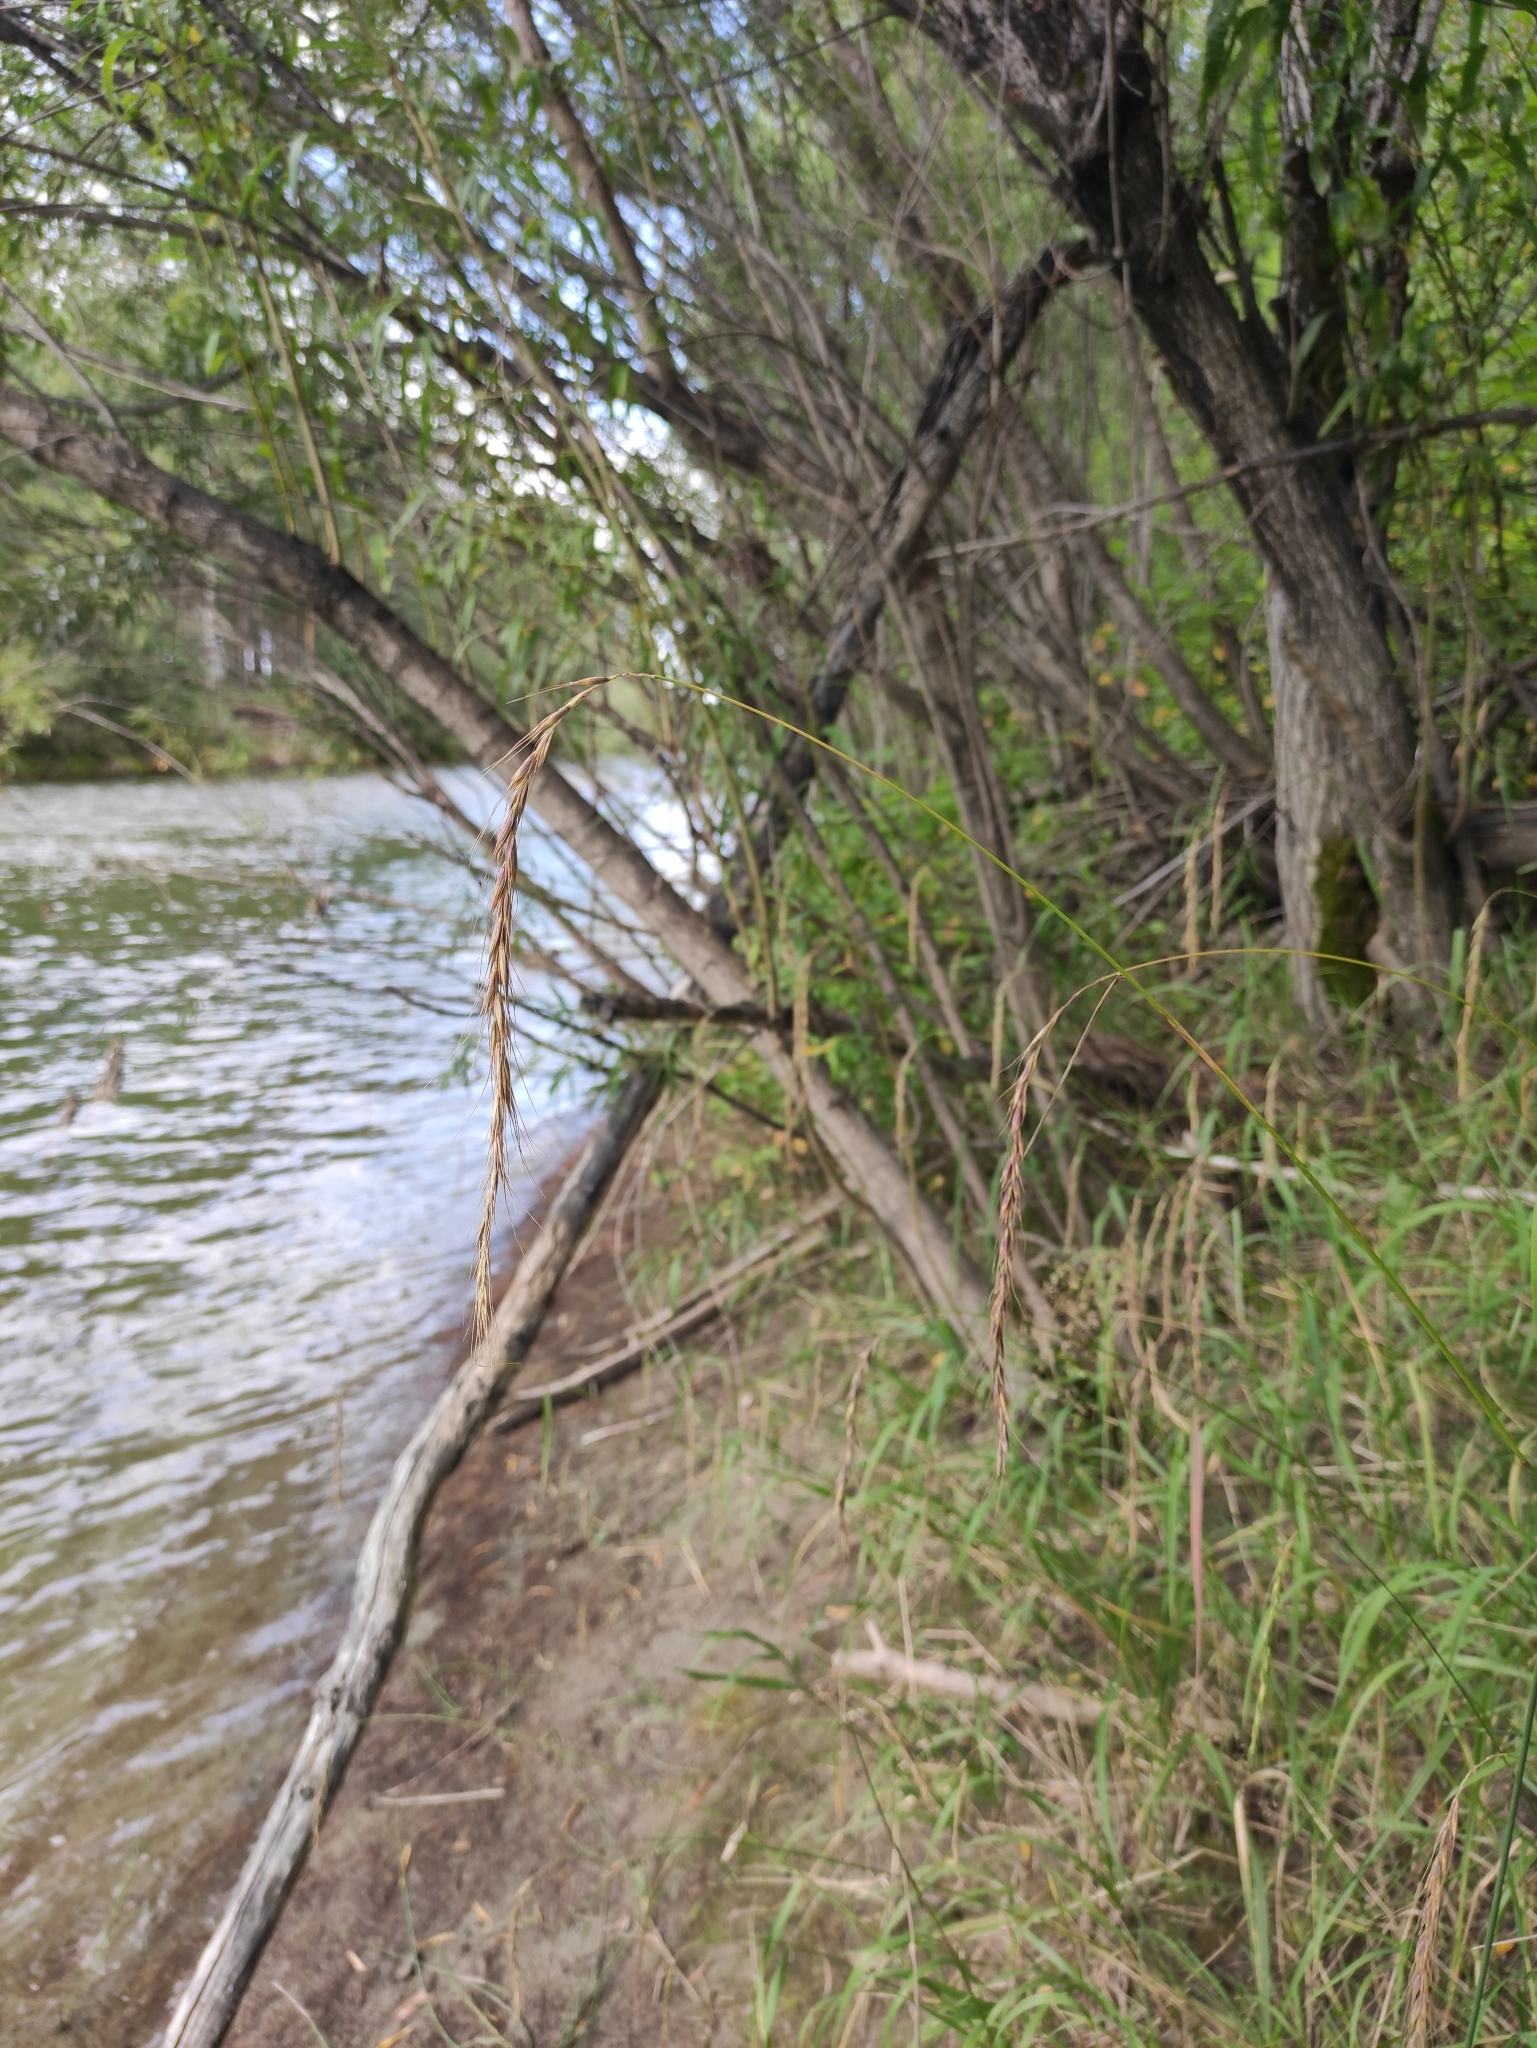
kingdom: Plantae
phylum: Tracheophyta
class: Liliopsida
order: Poales
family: Poaceae
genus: Elymus
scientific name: Elymus sibiricus
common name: Siberian wildrye
